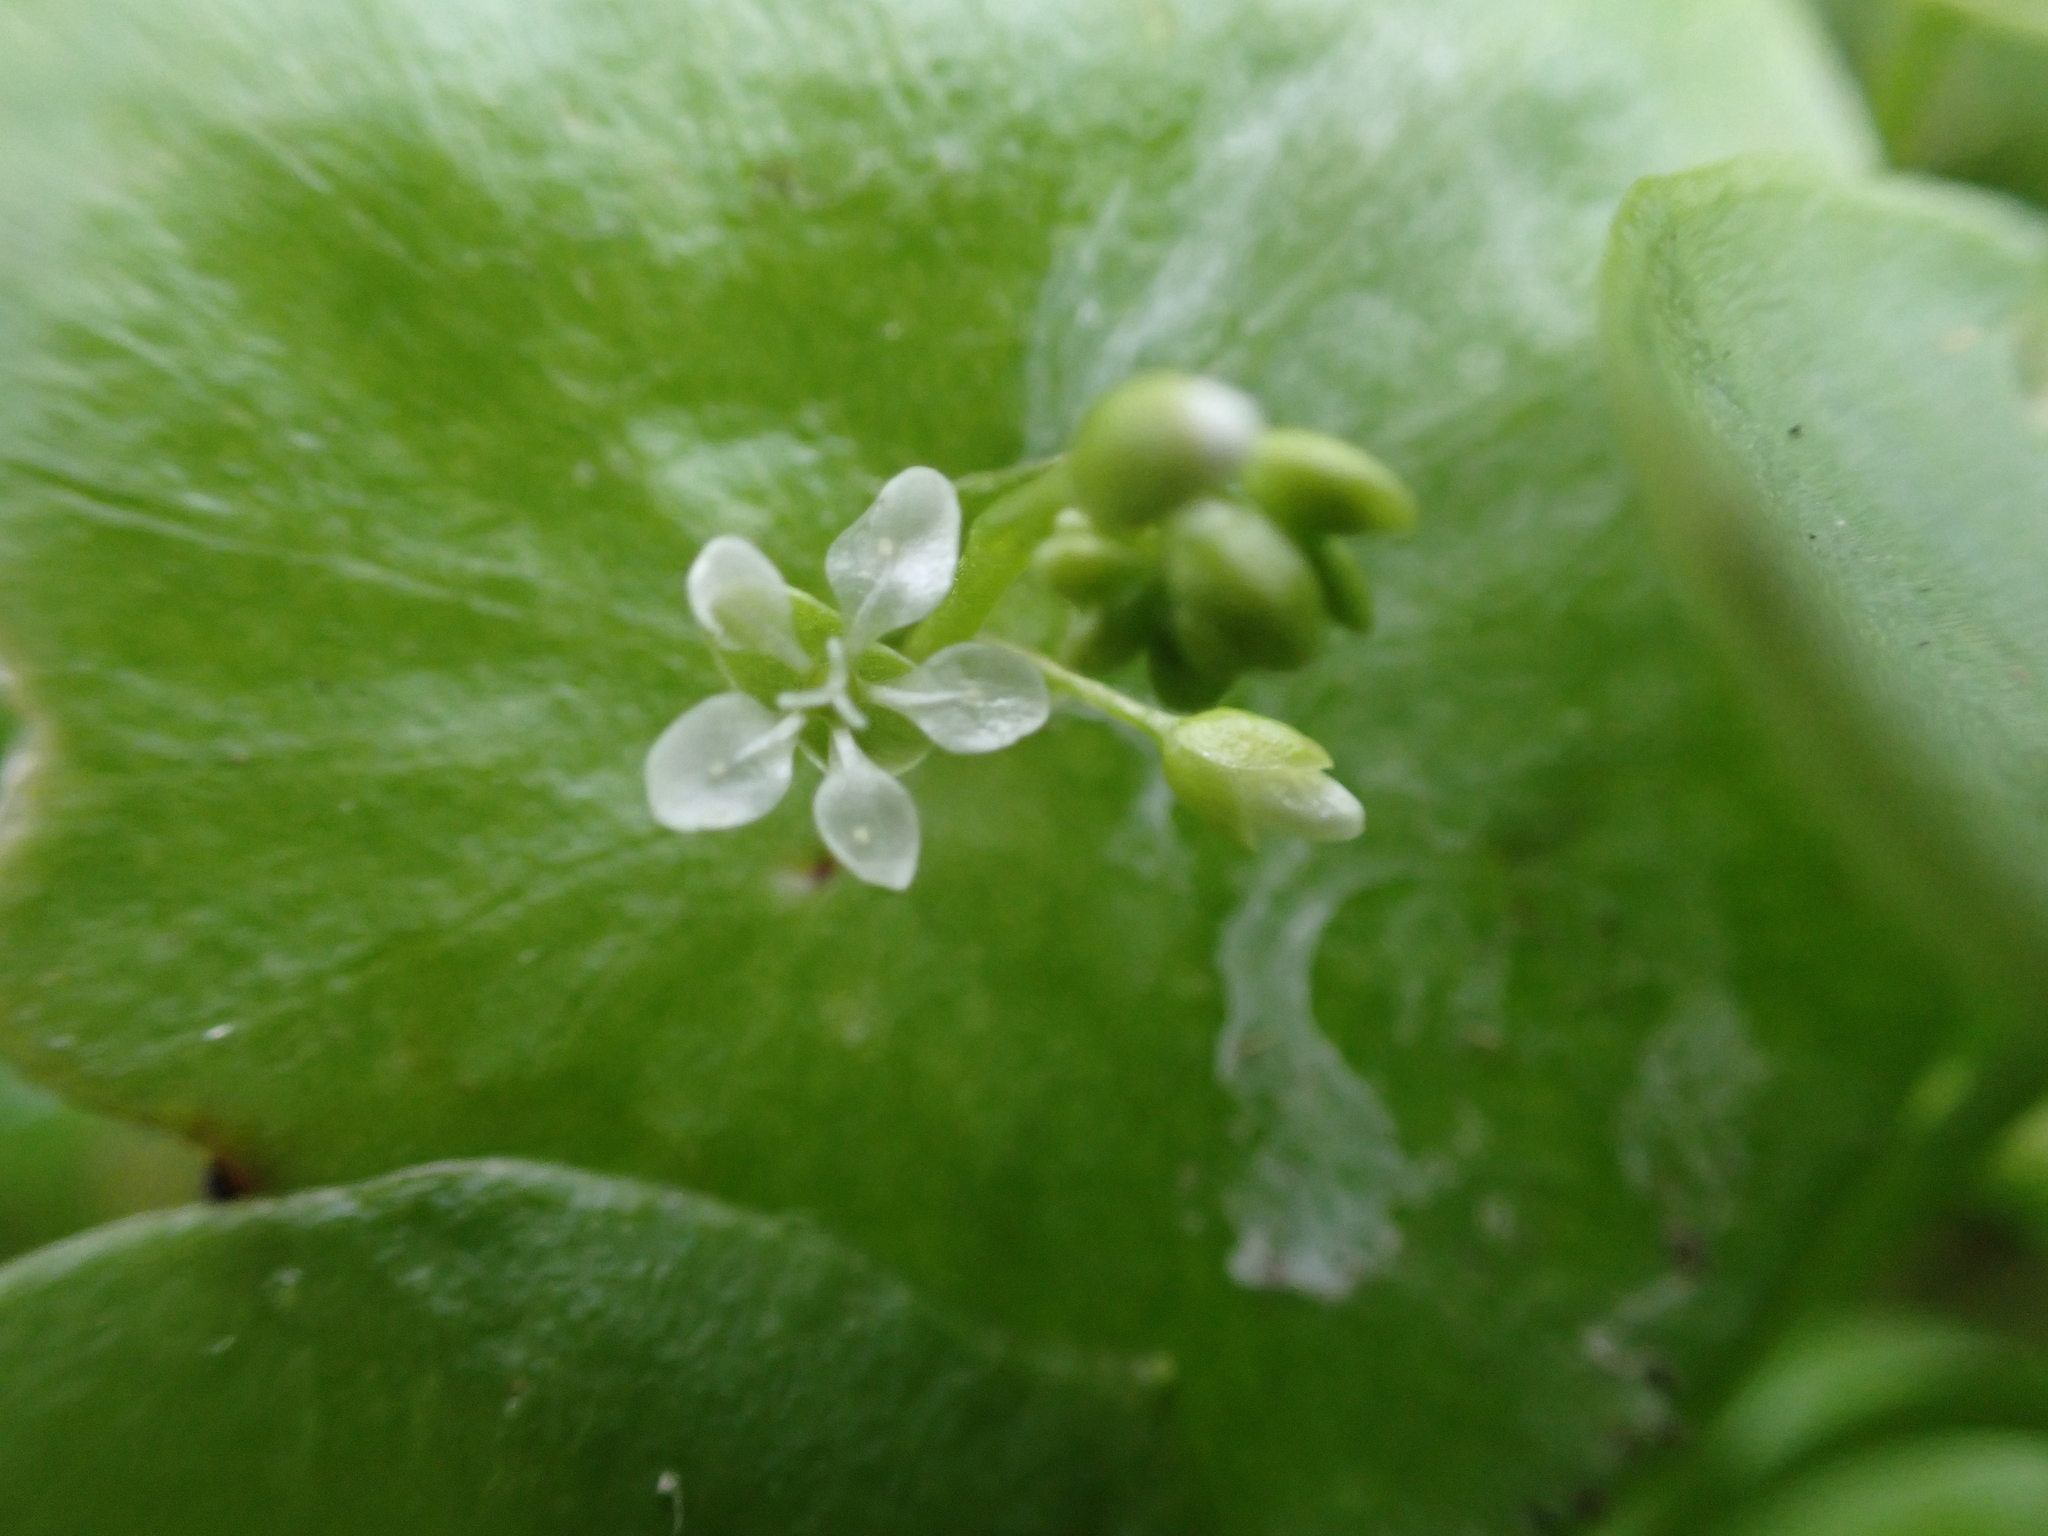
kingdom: Plantae
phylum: Tracheophyta
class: Magnoliopsida
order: Caryophyllales
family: Montiaceae
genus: Claytonia
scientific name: Claytonia perfoliata
